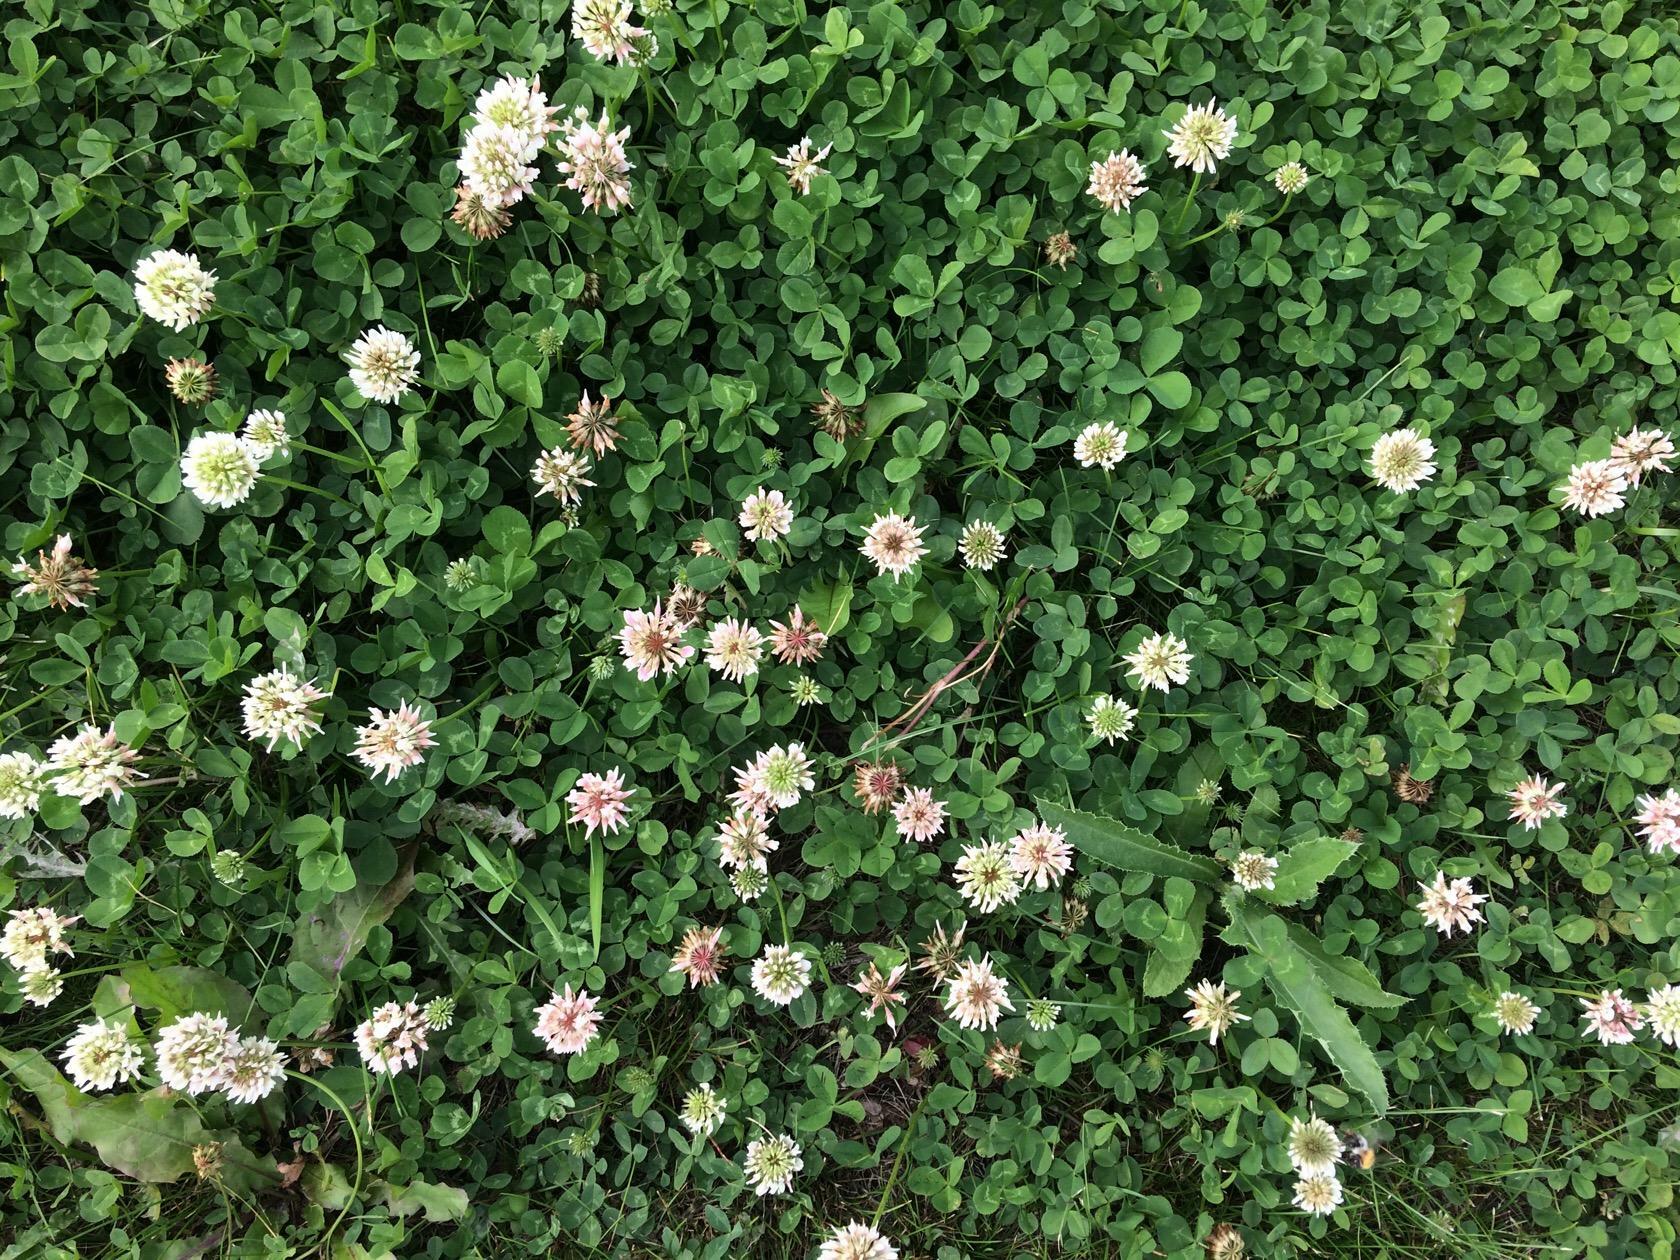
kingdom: Plantae
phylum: Tracheophyta
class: Magnoliopsida
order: Fabales
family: Fabaceae
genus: Trifolium
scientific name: Trifolium repens
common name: White clover
